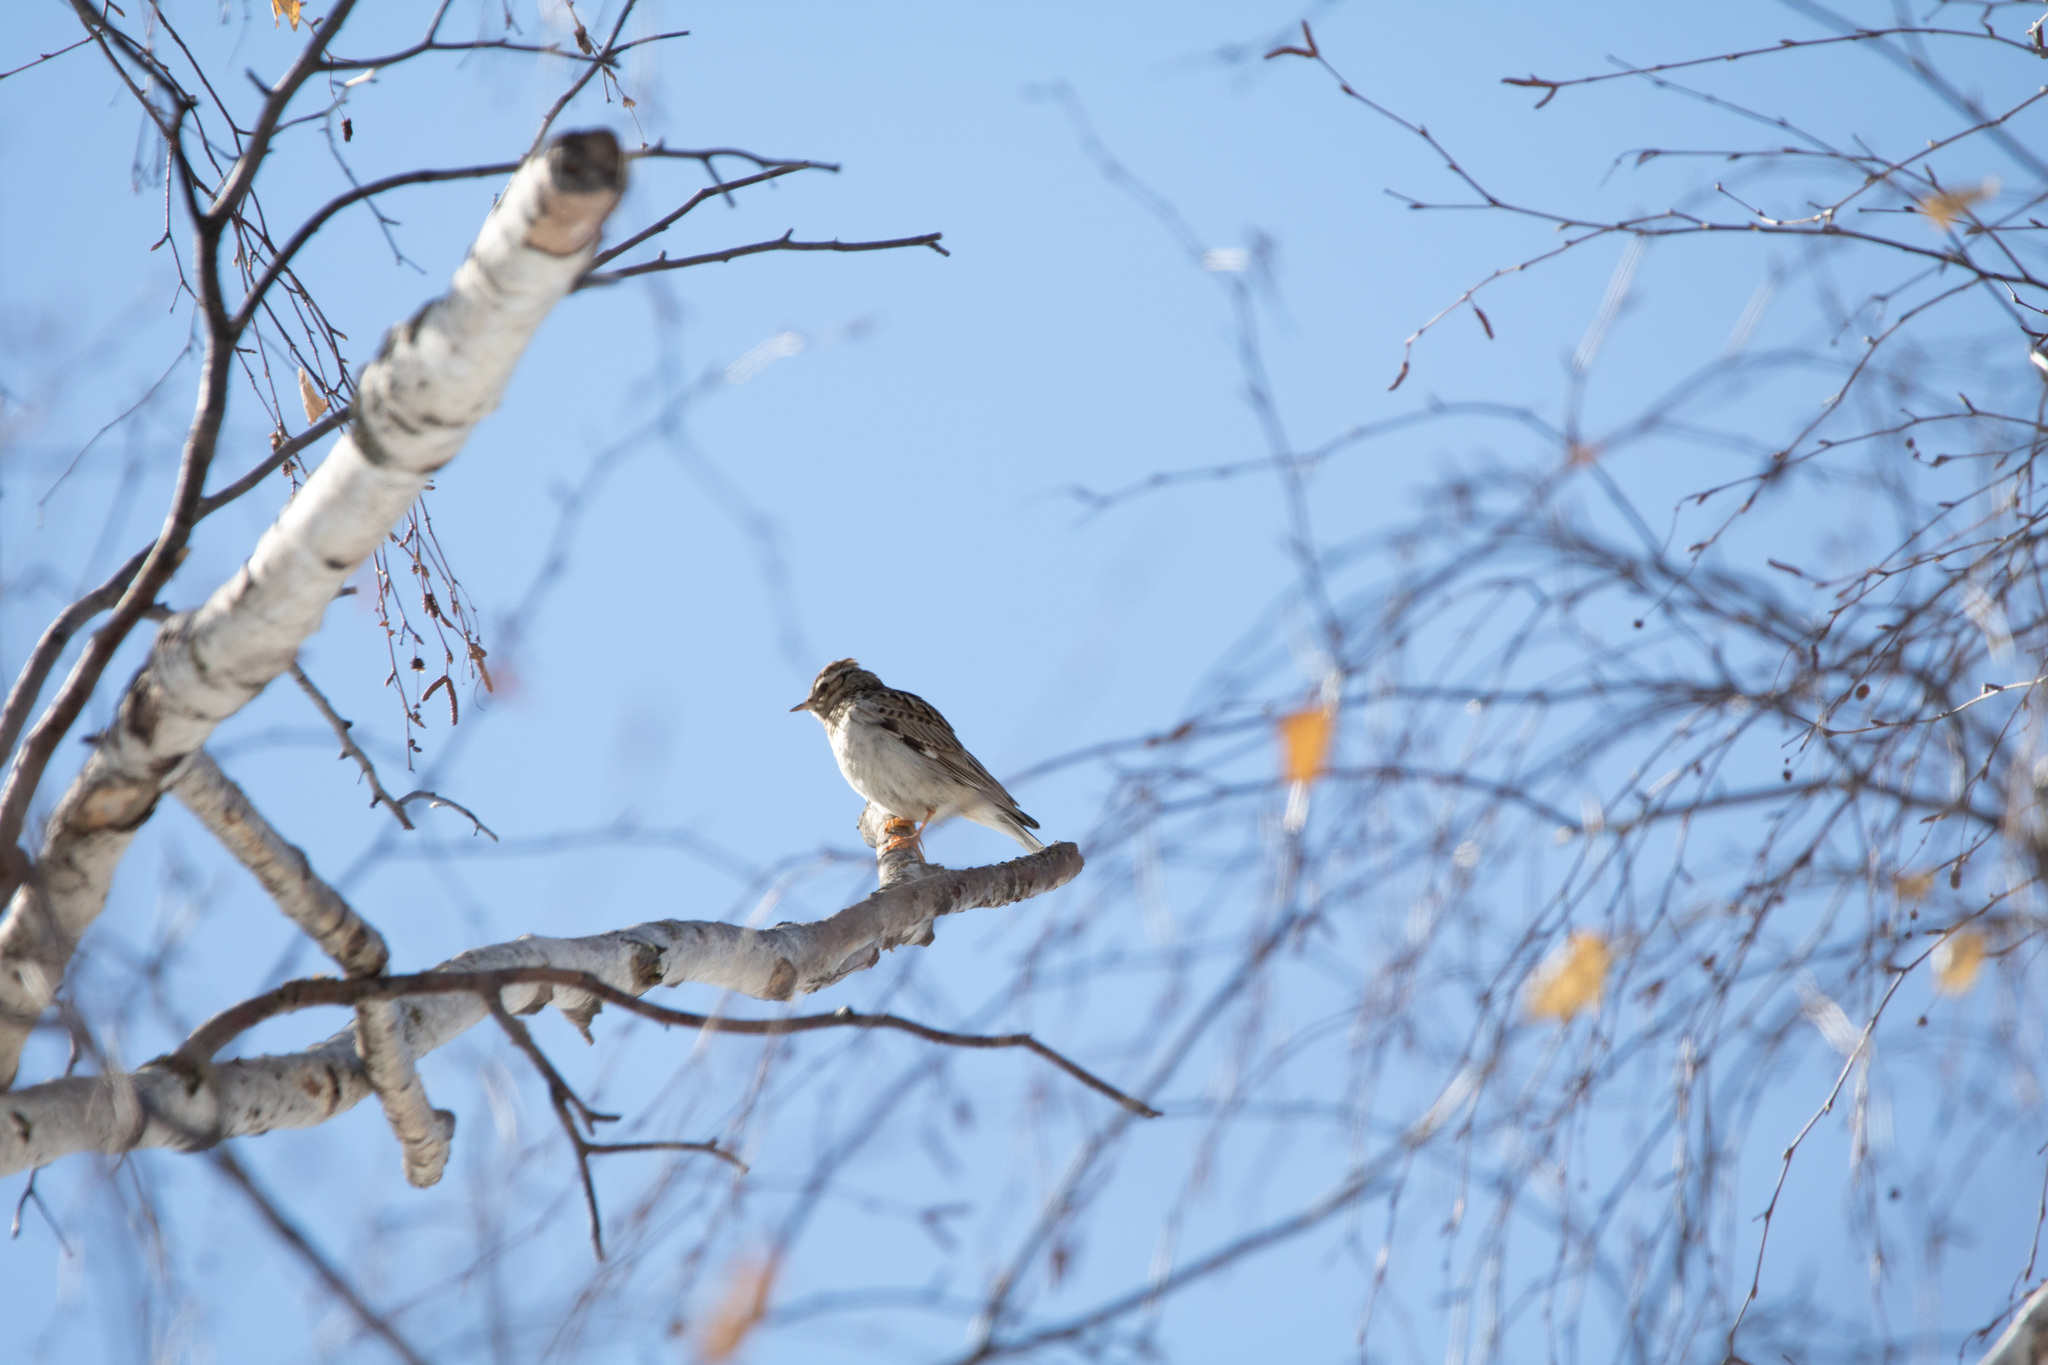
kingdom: Animalia
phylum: Chordata
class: Aves
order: Passeriformes
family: Alaudidae
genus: Lullula
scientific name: Lullula arborea
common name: Woodlark
